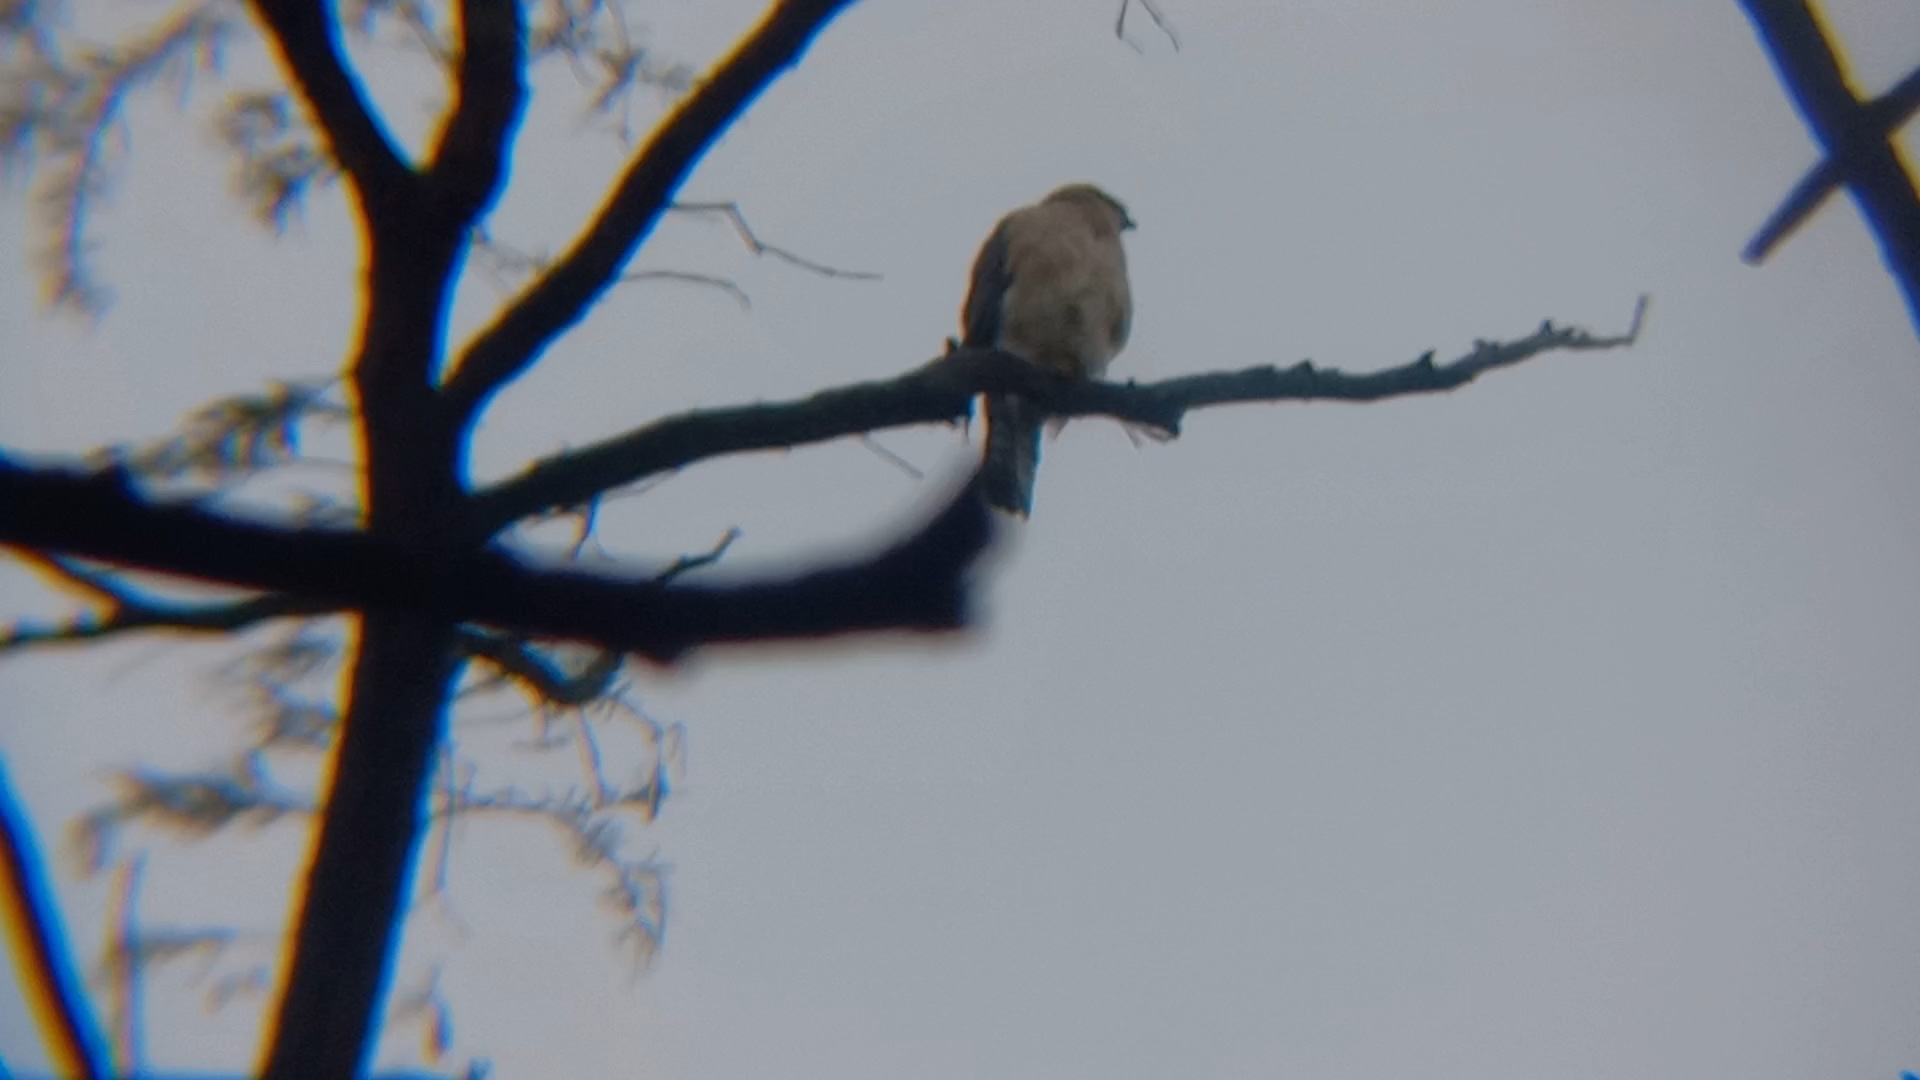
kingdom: Animalia
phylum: Chordata
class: Aves
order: Accipitriformes
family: Accipitridae
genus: Accipiter
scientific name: Accipiter cooperii
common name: Cooper's hawk
